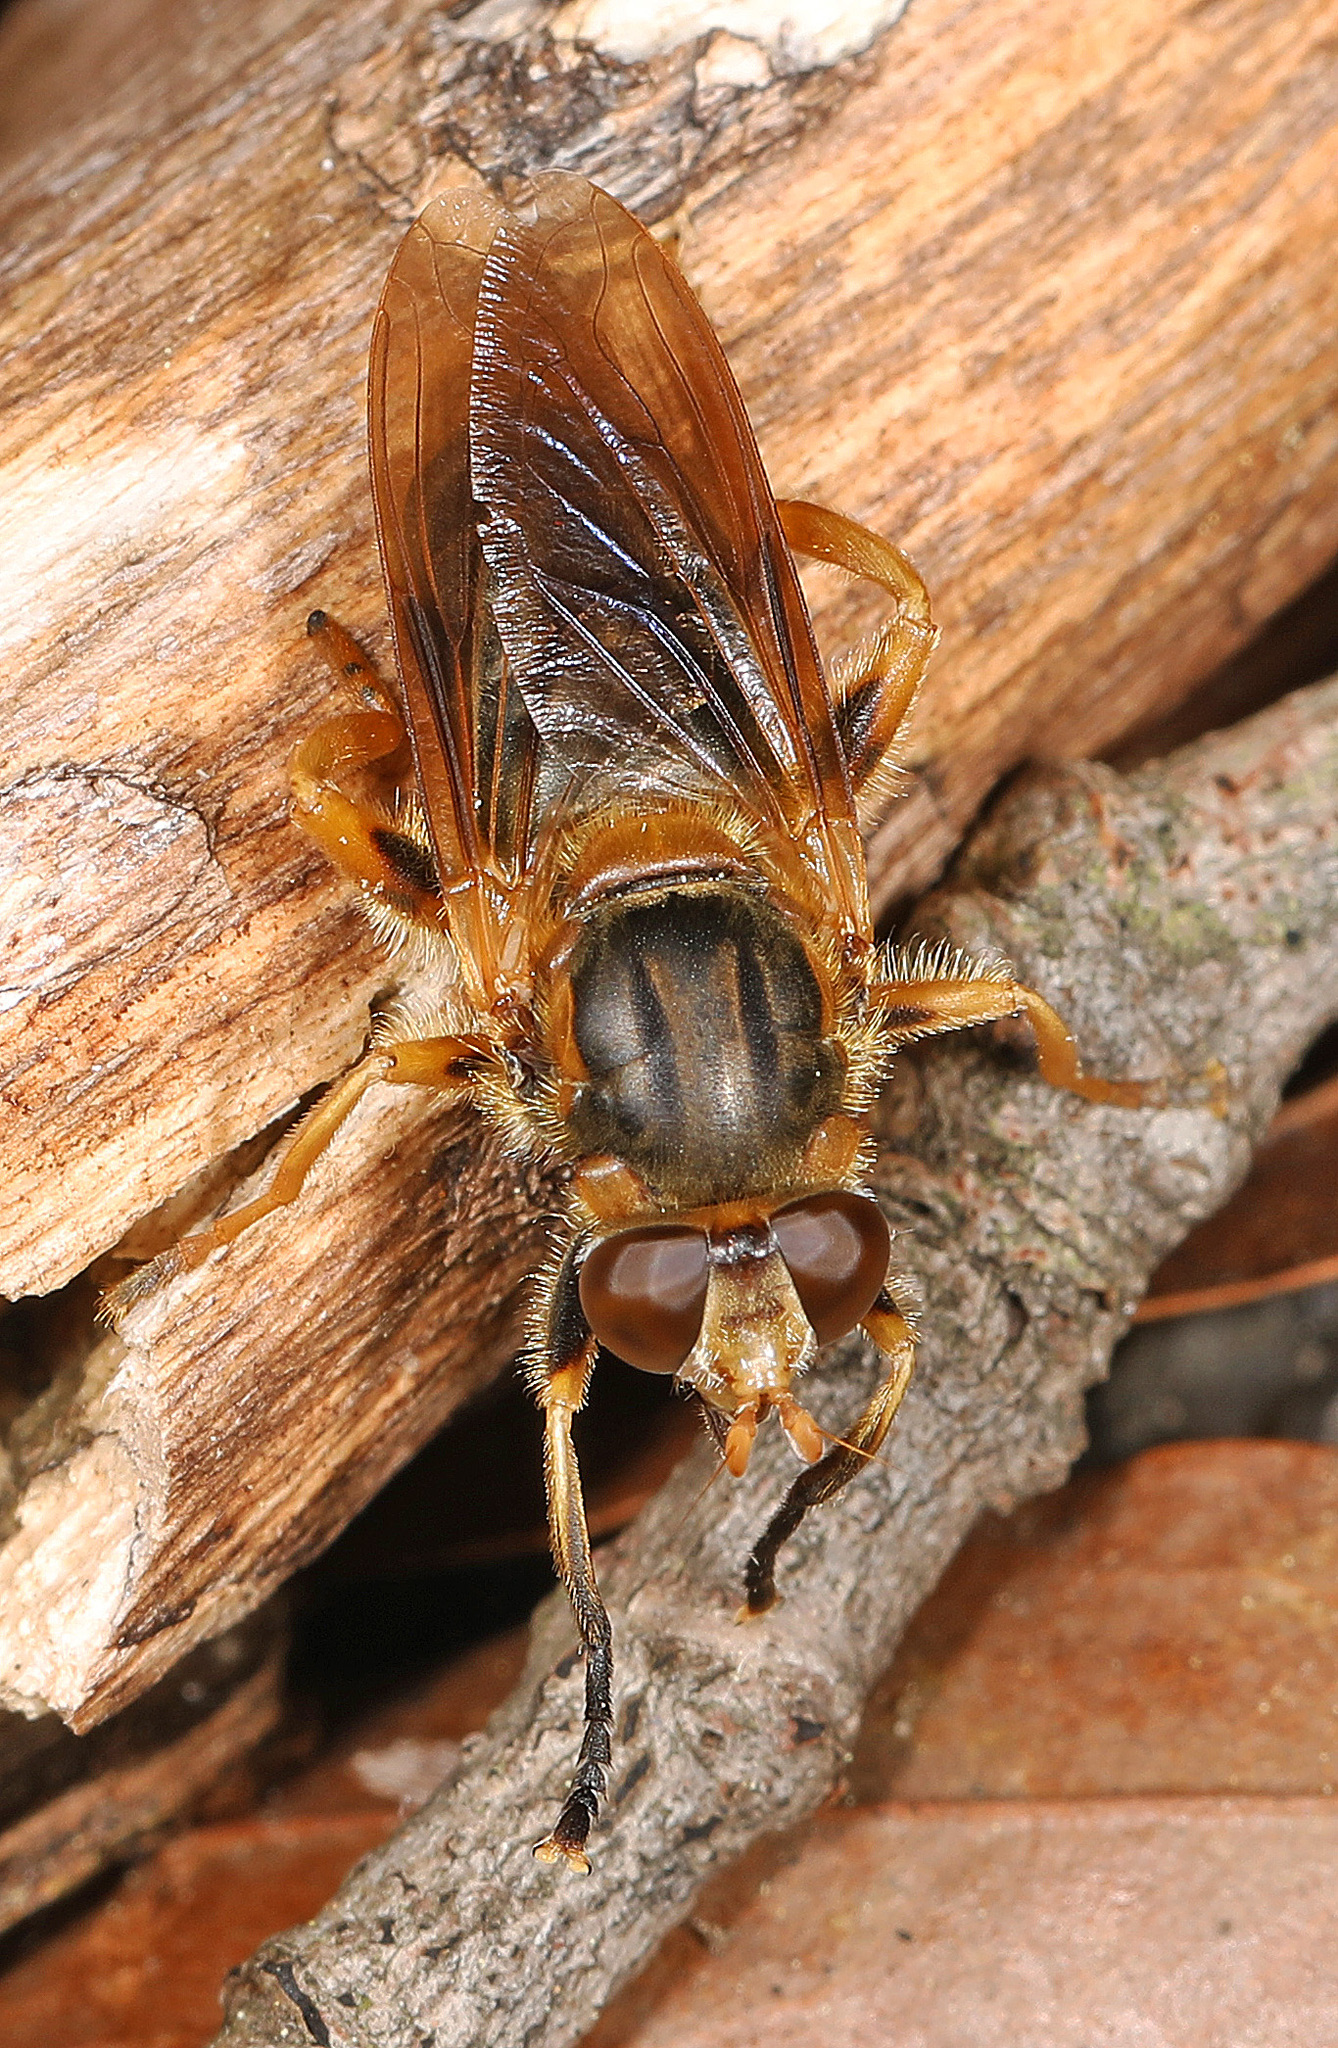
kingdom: Animalia
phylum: Arthropoda
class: Insecta
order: Diptera
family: Syrphidae
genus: Teuchocnemis
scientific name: Teuchocnemis lituratus
